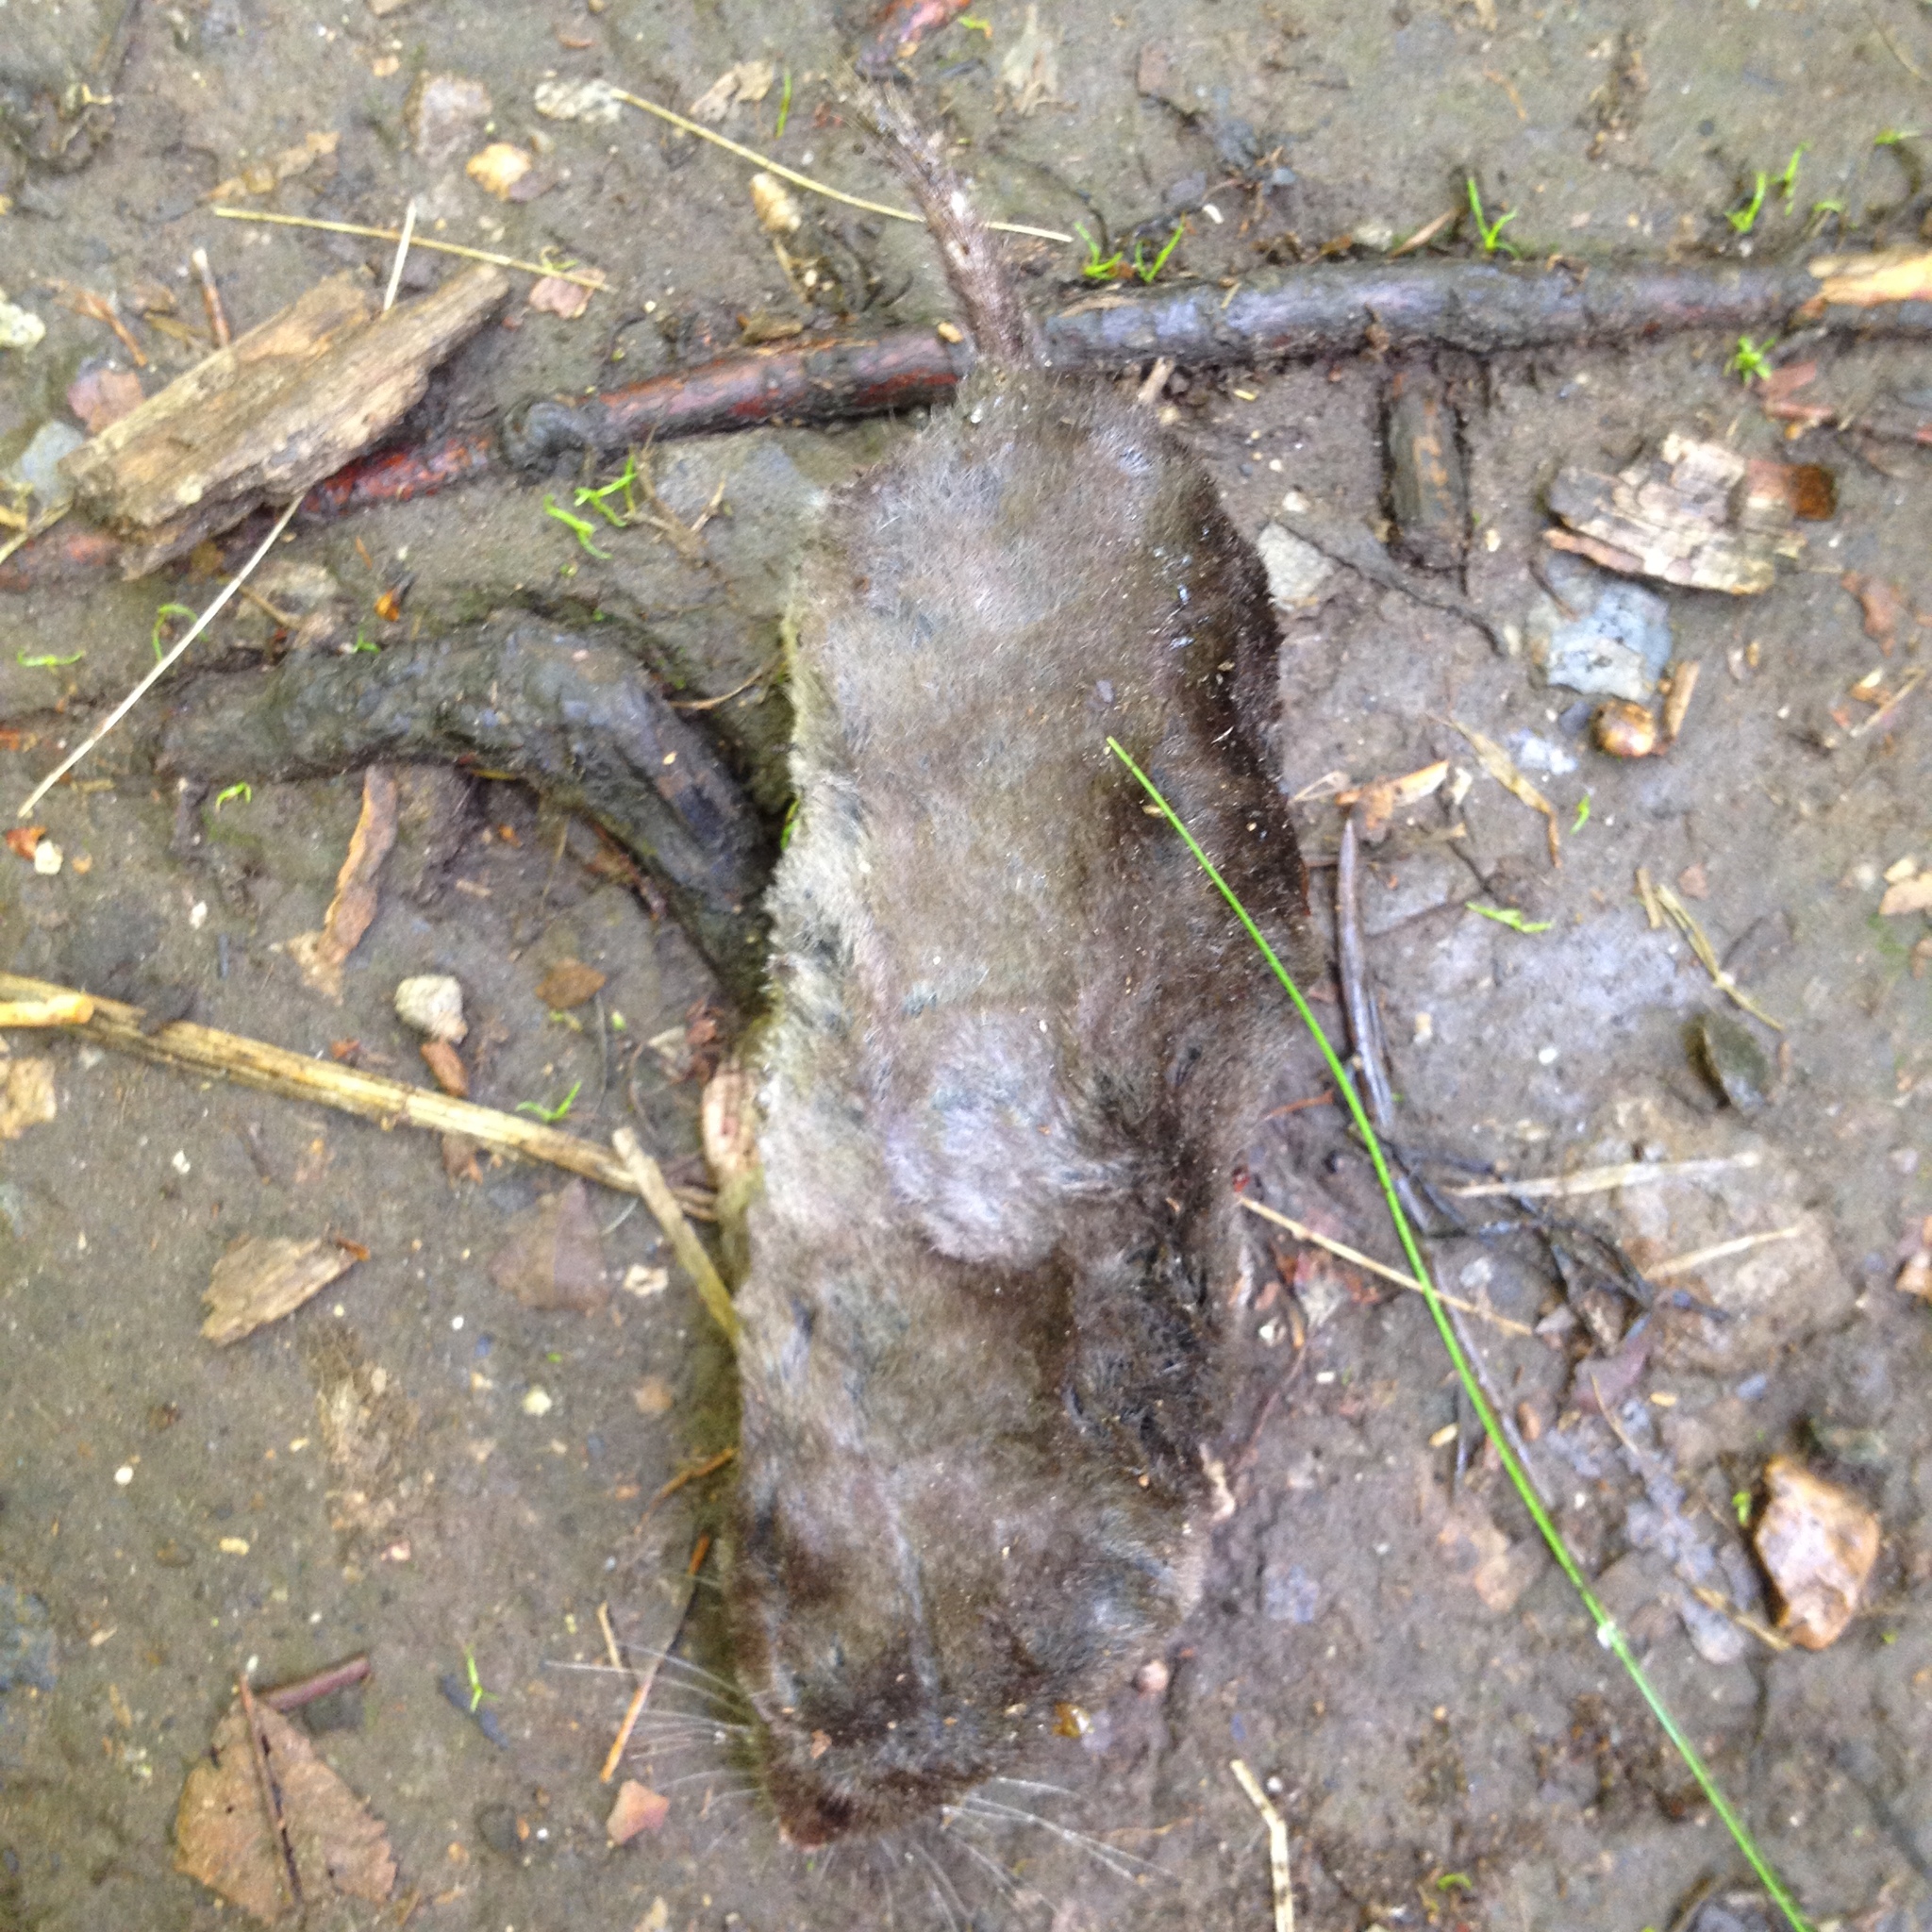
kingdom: Animalia
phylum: Chordata
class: Mammalia
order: Soricomorpha
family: Soricidae
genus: Blarina
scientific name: Blarina brevicauda
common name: Northern short-tailed shrew
